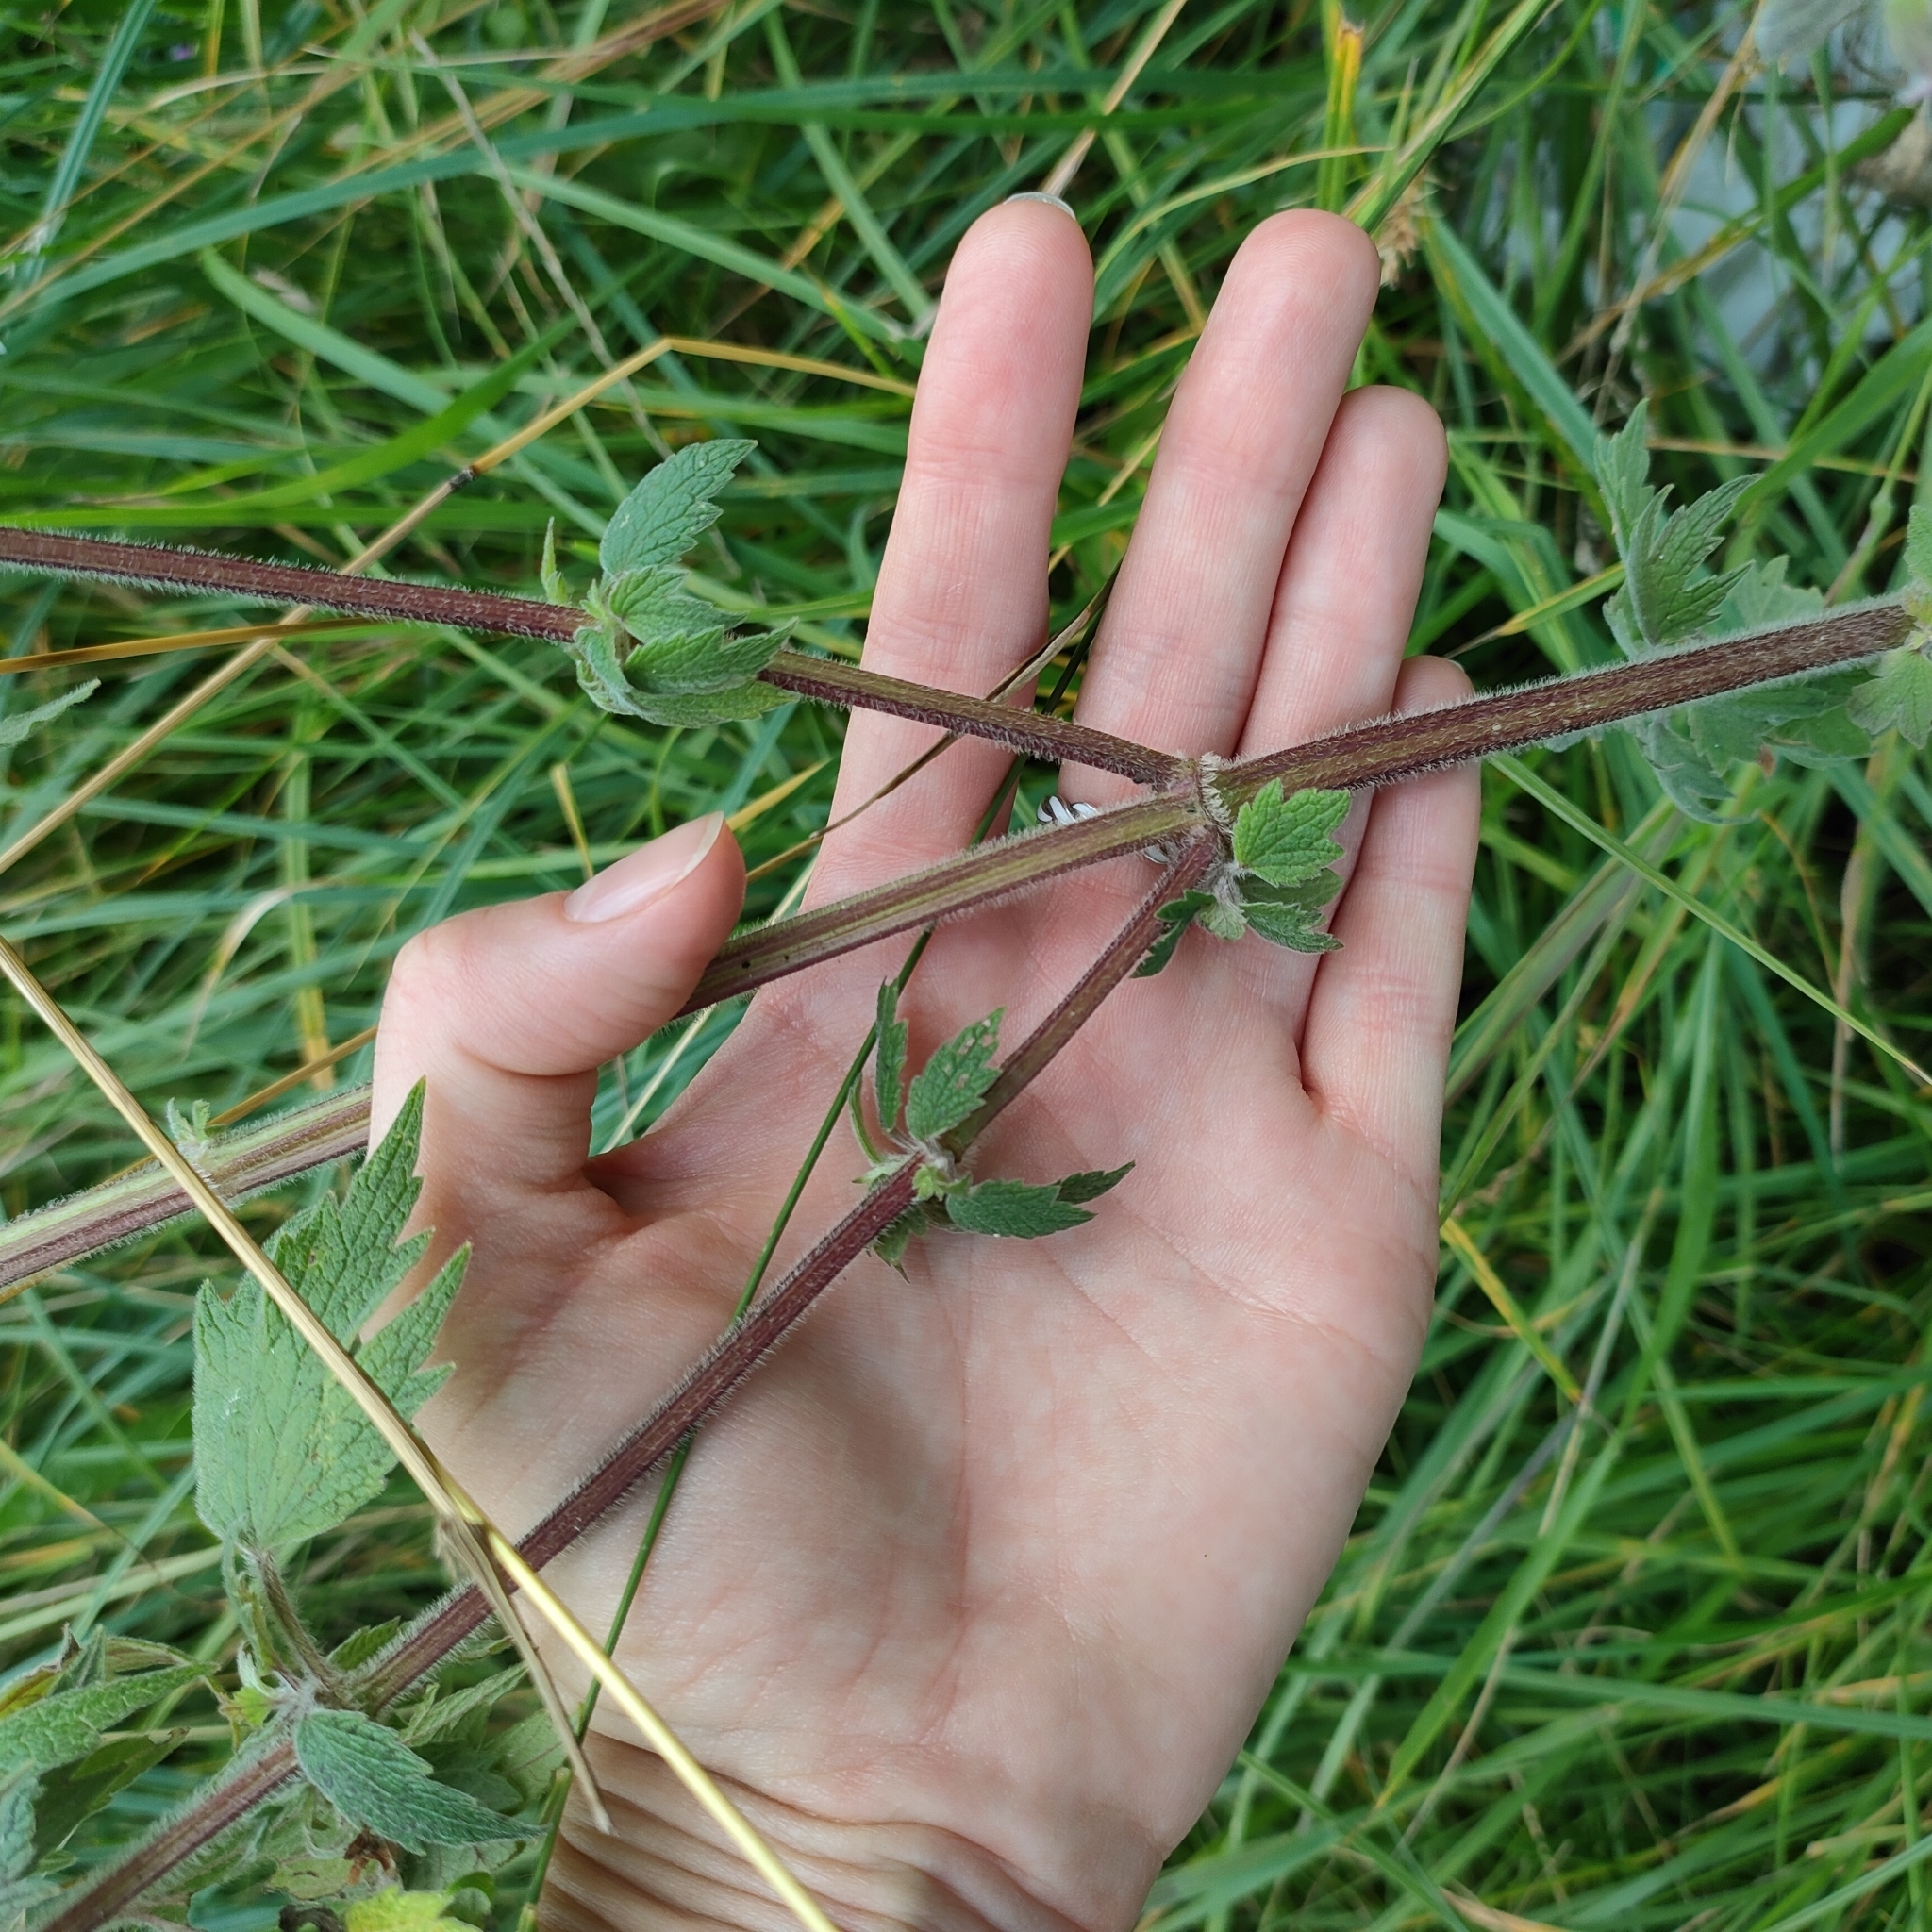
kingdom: Plantae
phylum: Tracheophyta
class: Magnoliopsida
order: Lamiales
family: Lamiaceae
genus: Leonurus
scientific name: Leonurus quinquelobatus
